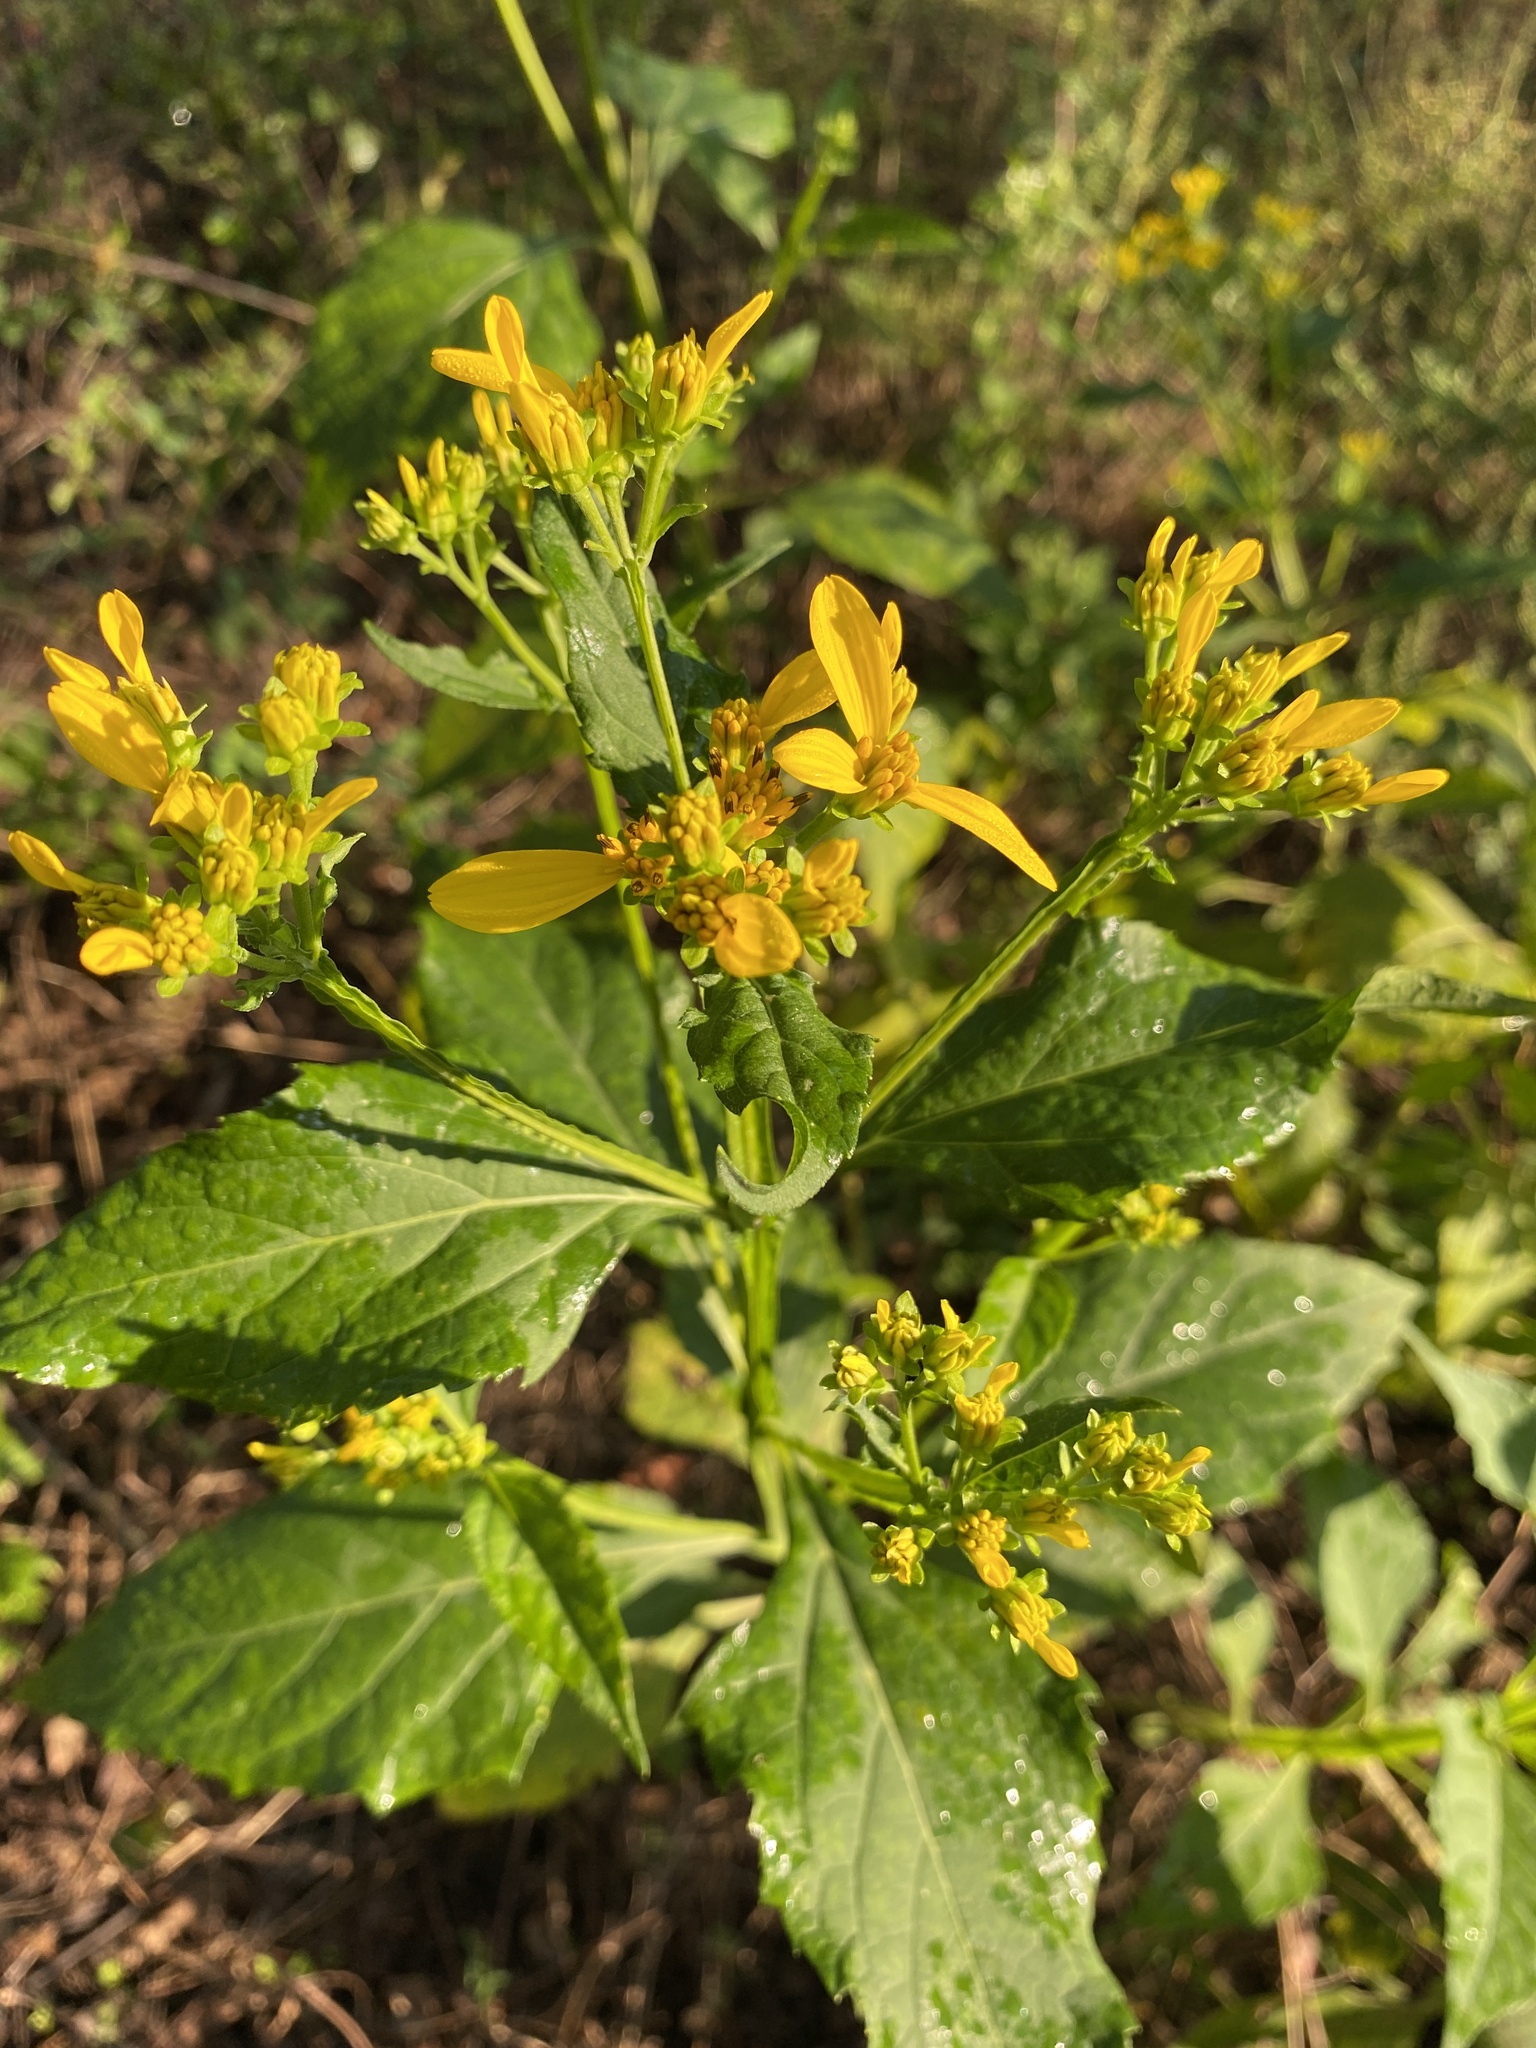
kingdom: Plantae
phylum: Tracheophyta
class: Magnoliopsida
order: Asterales
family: Asteraceae
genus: Verbesina
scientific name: Verbesina occidentalis
